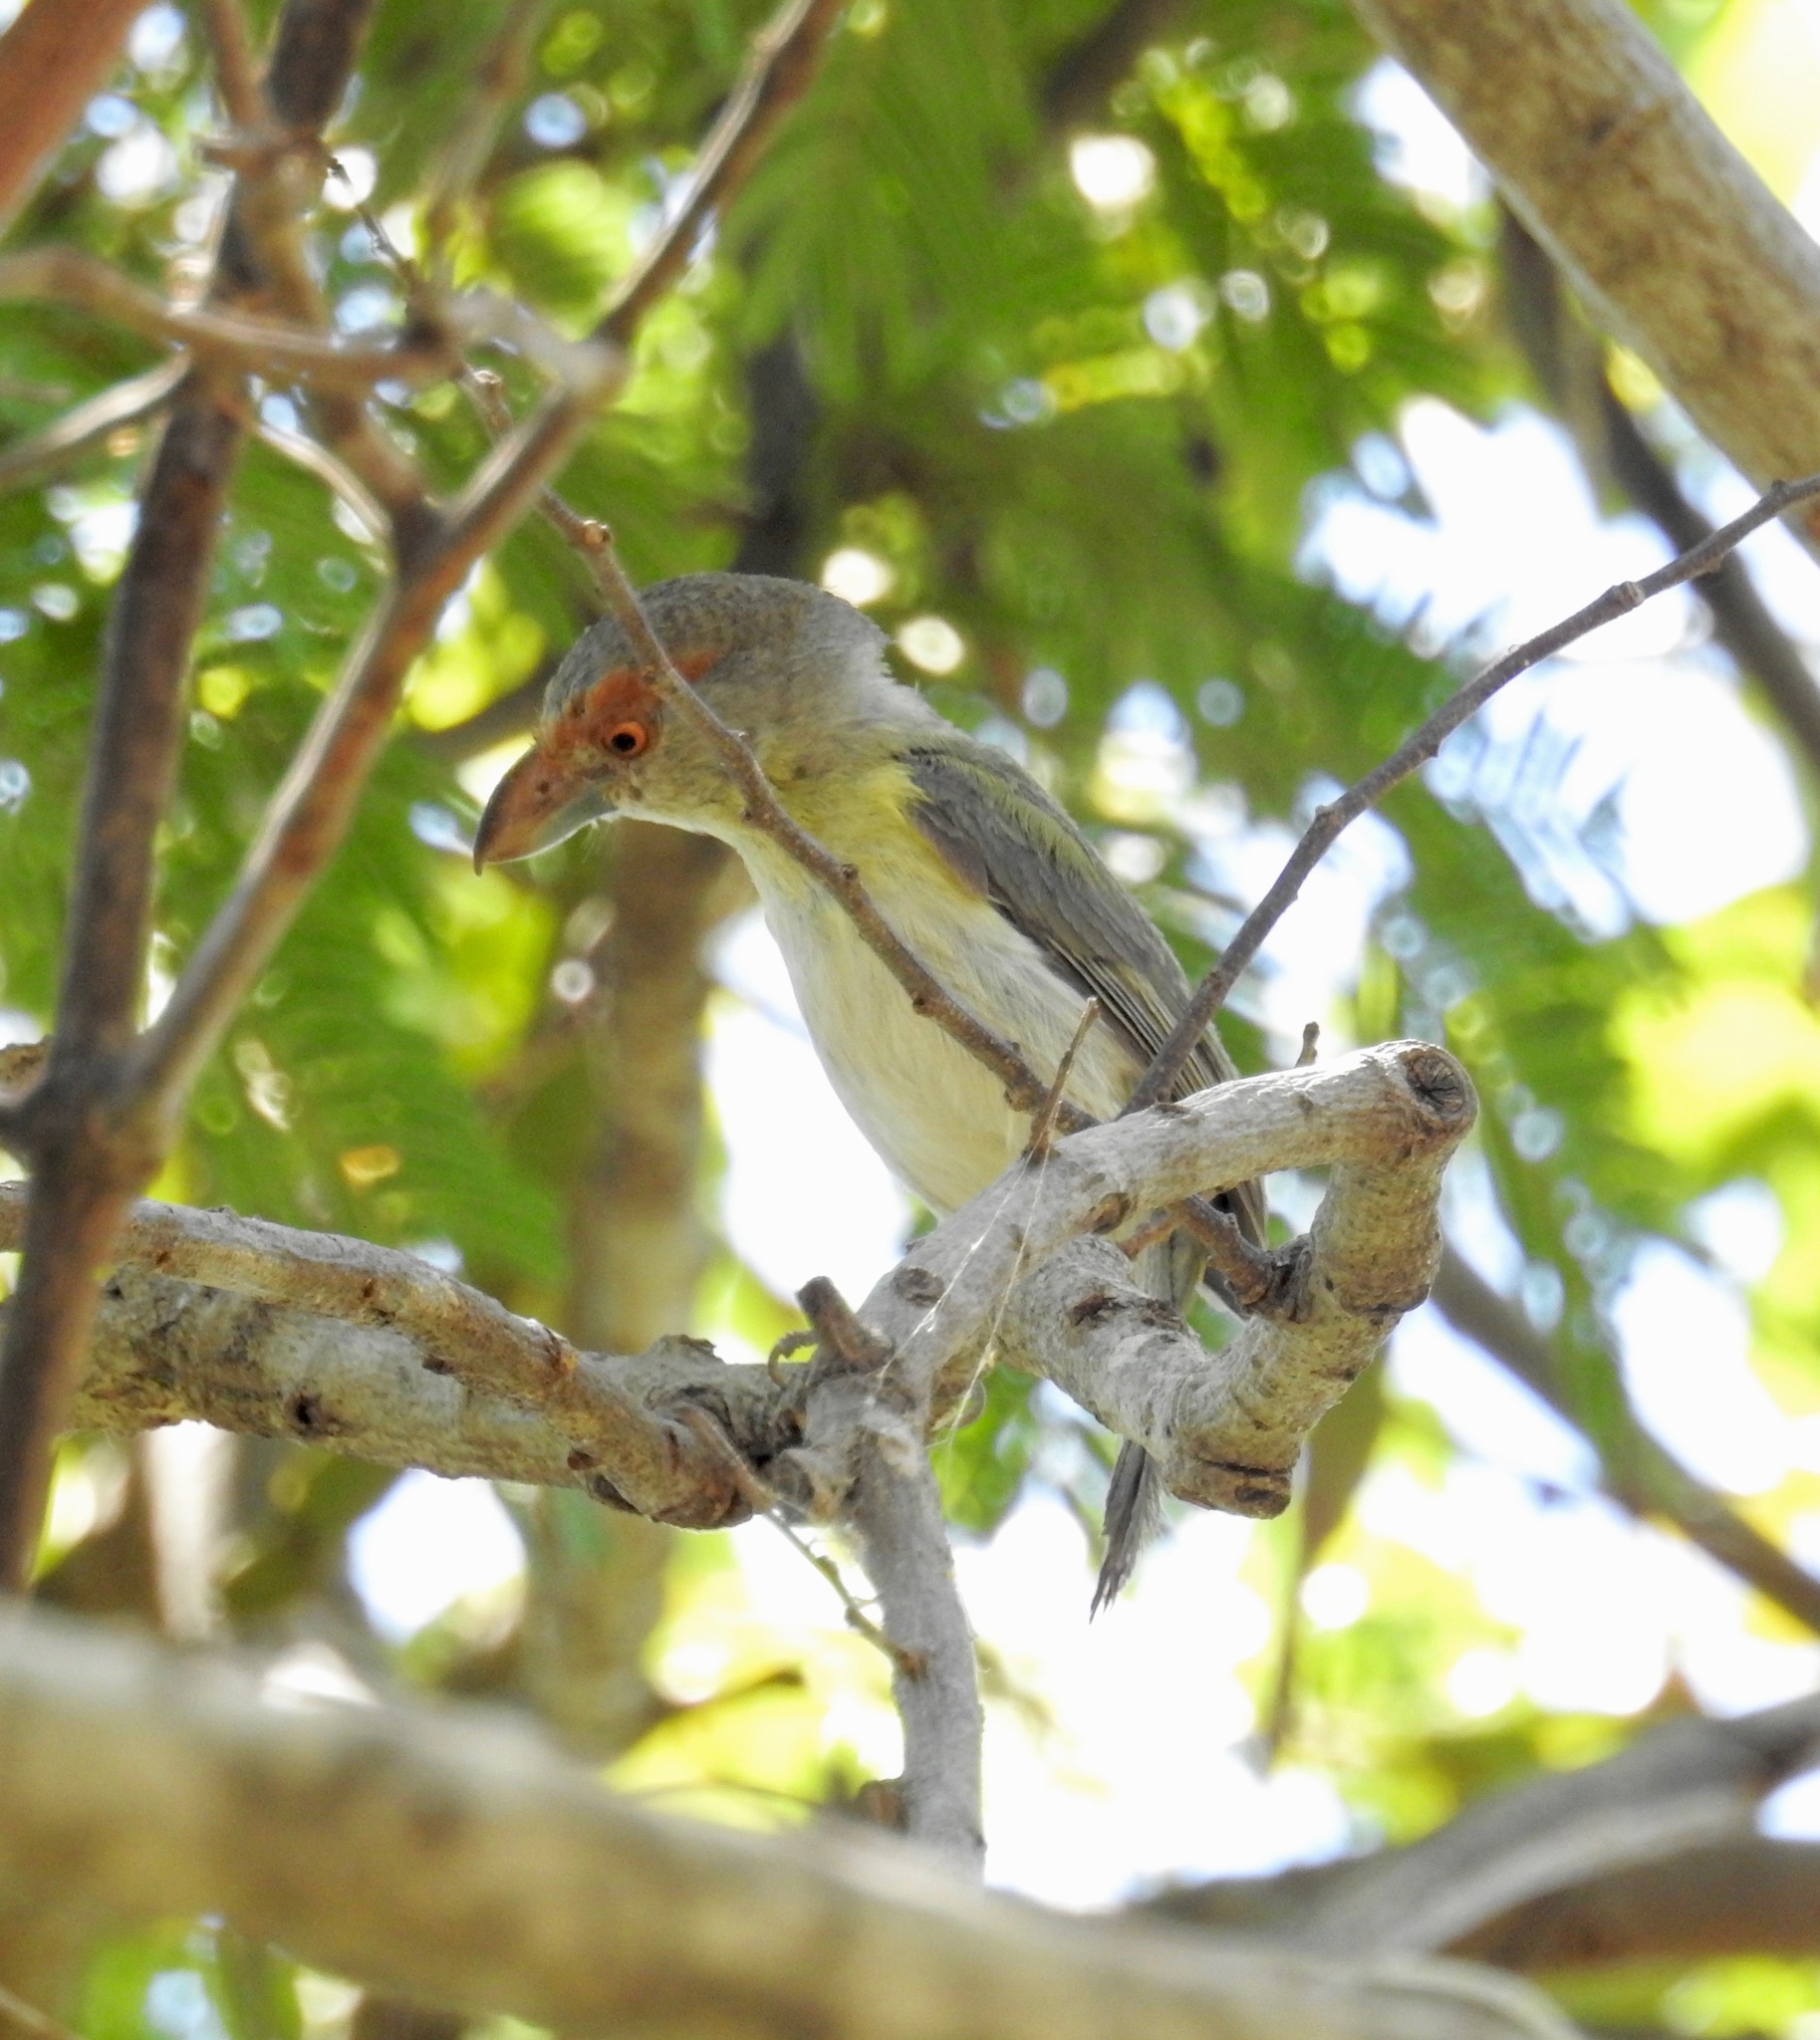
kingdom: Animalia
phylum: Chordata
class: Aves
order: Passeriformes
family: Vireonidae
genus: Cyclarhis
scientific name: Cyclarhis gujanensis
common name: Rufous-browed peppershrike
